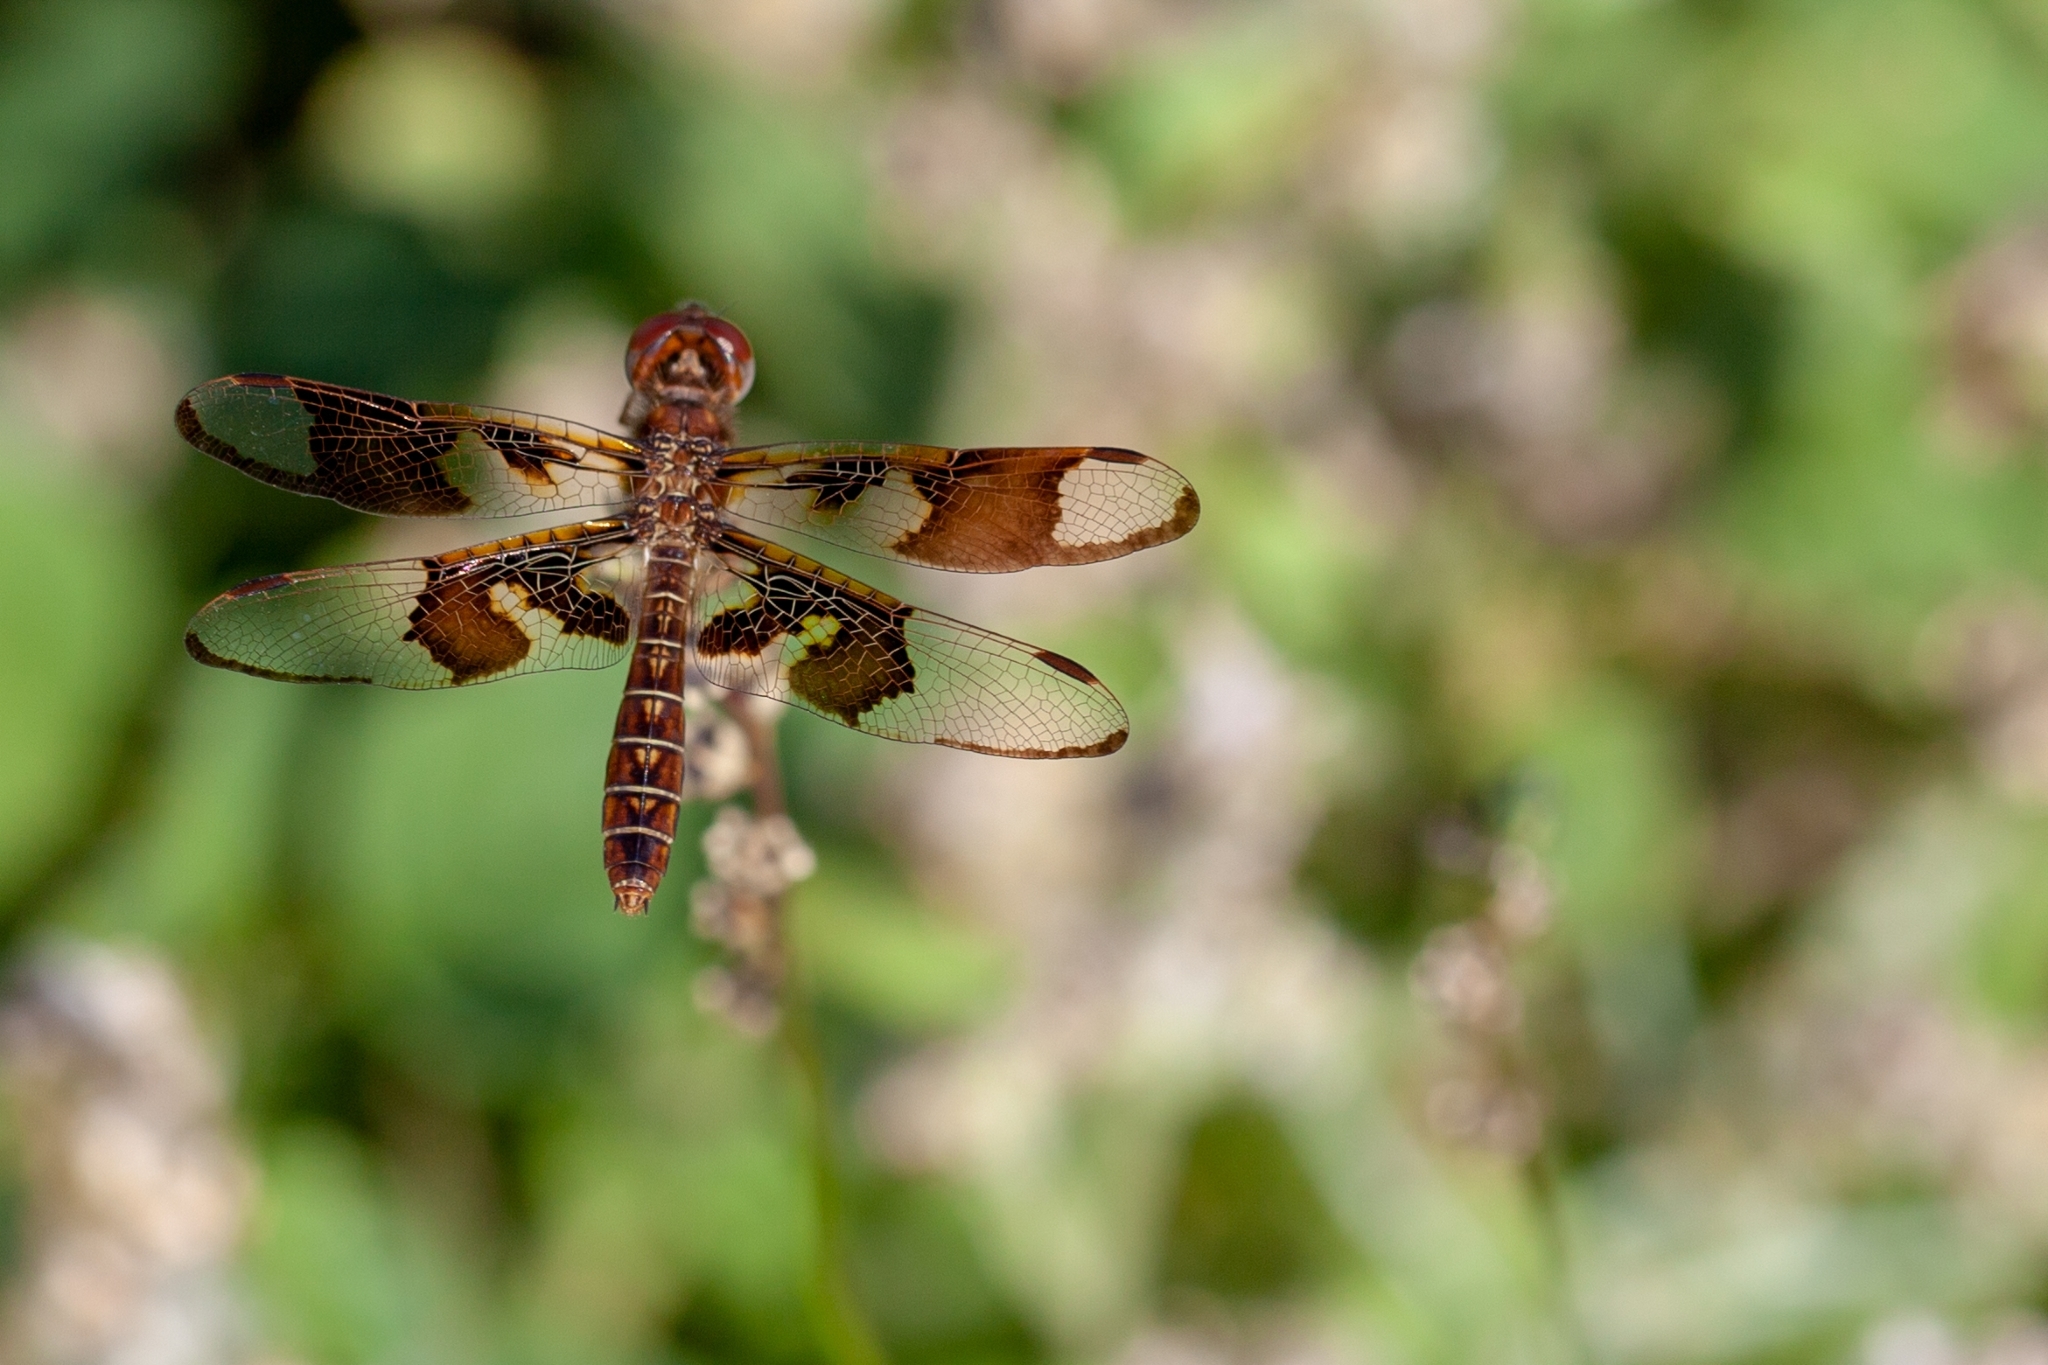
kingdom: Animalia
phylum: Arthropoda
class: Insecta
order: Odonata
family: Libellulidae
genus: Perithemis
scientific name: Perithemis tenera
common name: Eastern amberwing
